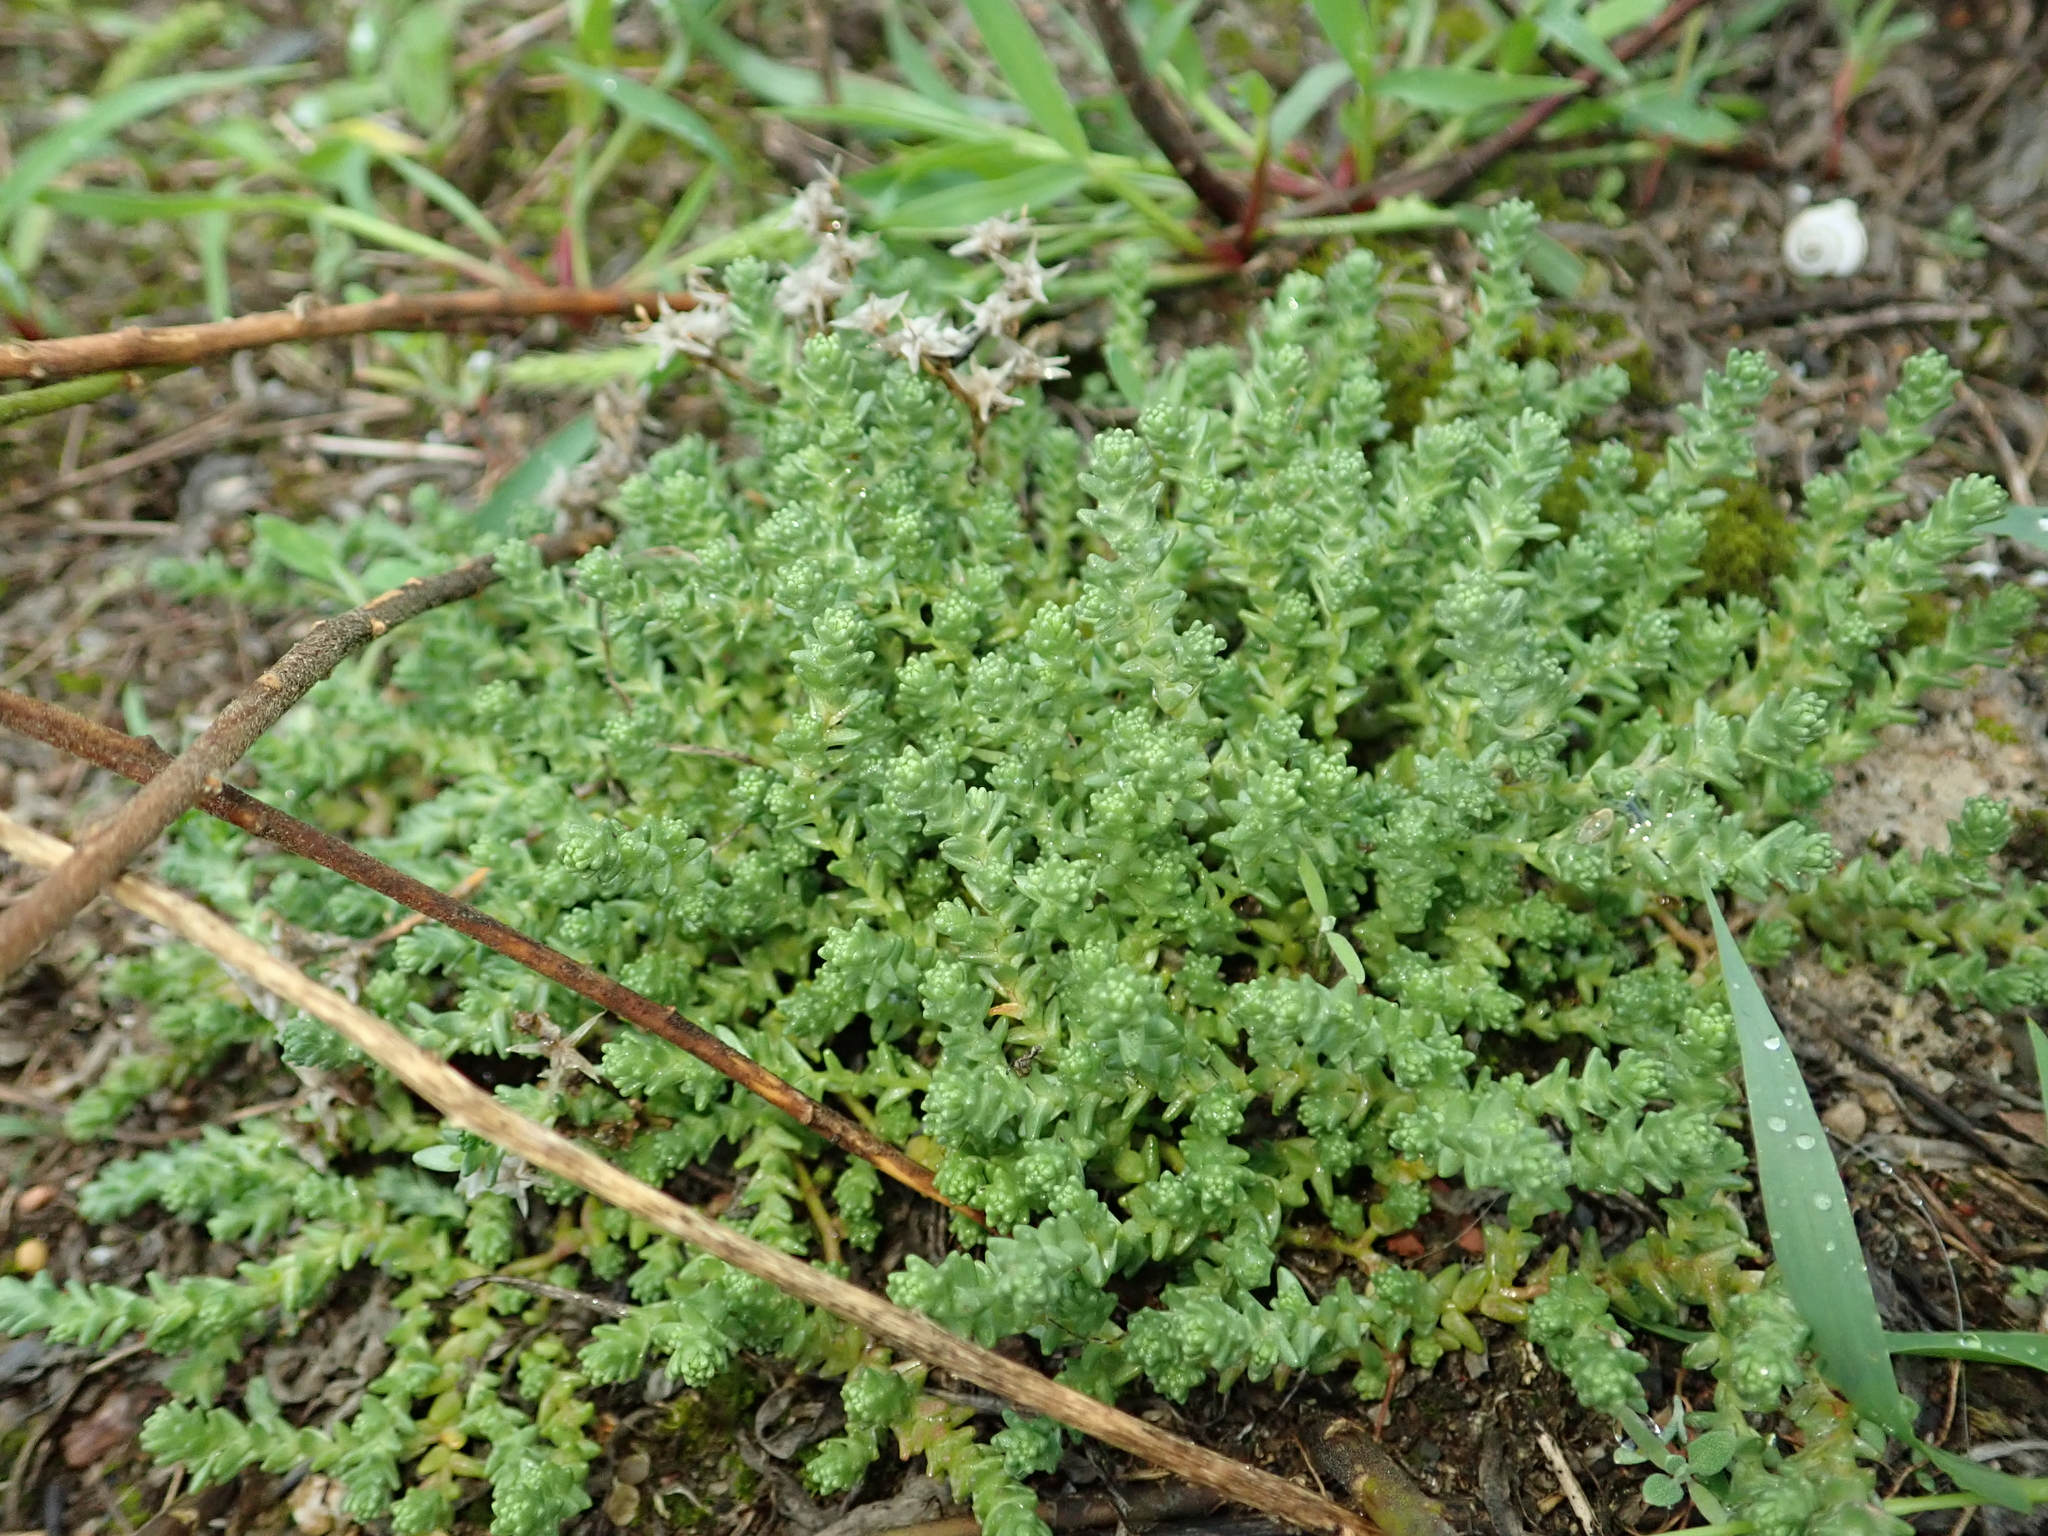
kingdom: Plantae
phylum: Tracheophyta
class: Magnoliopsida
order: Saxifragales
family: Crassulaceae
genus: Sedum
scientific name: Sedum acre
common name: Biting stonecrop
